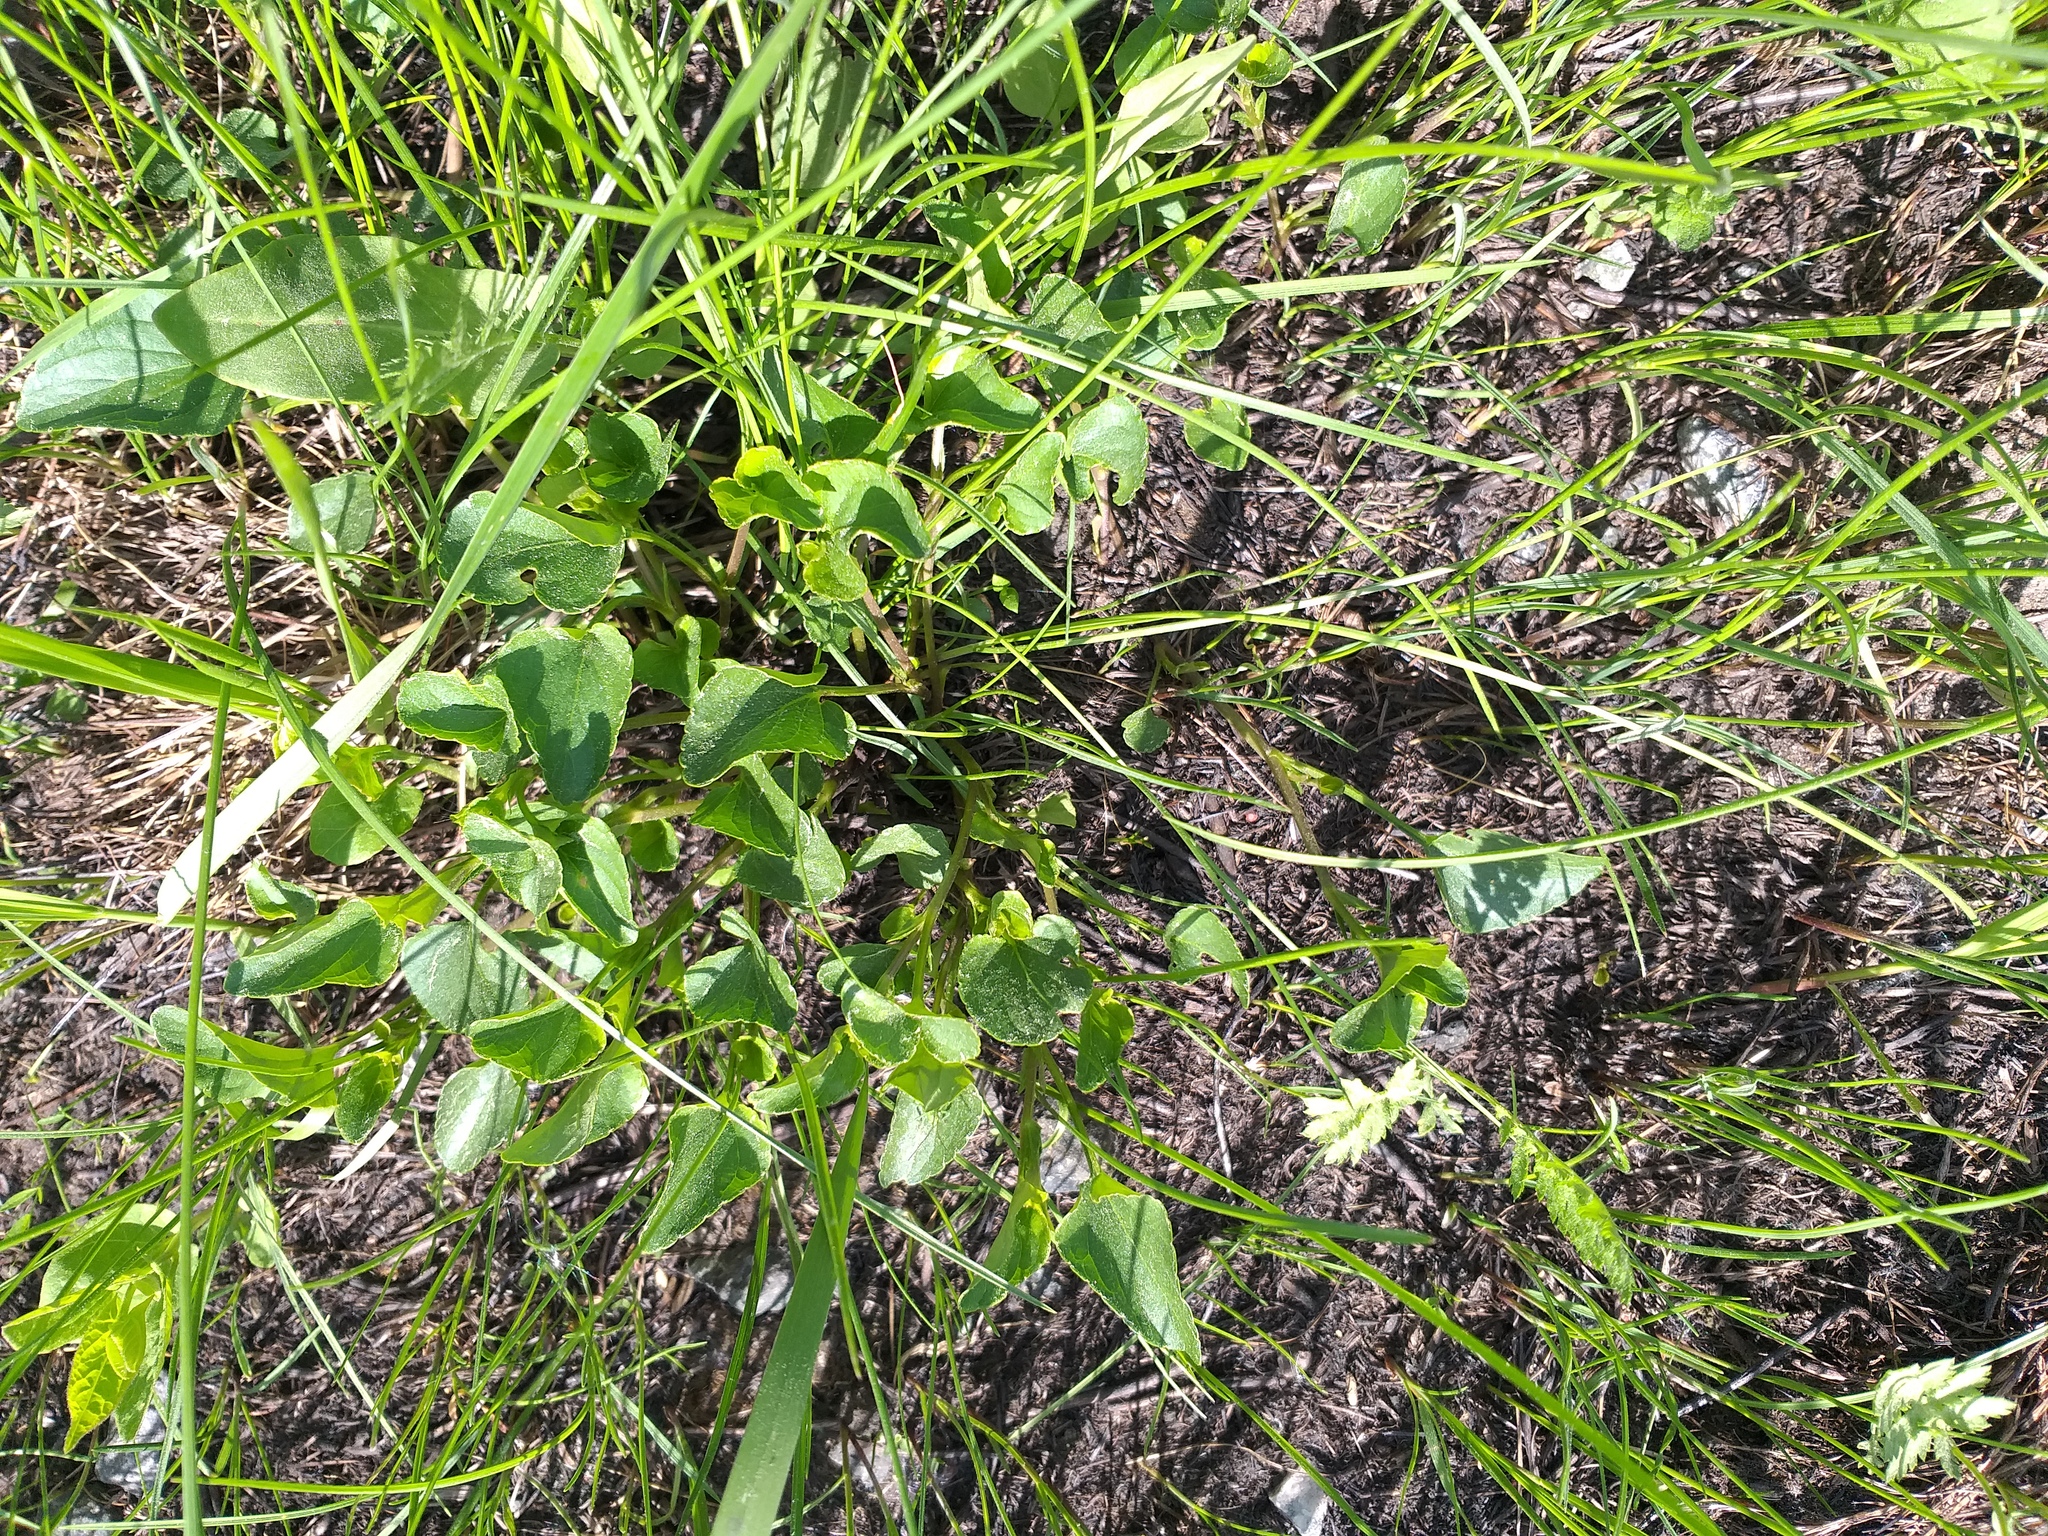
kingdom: Plantae
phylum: Tracheophyta
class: Magnoliopsida
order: Malpighiales
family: Violaceae
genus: Viola
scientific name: Viola canina
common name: Heath dog-violet
